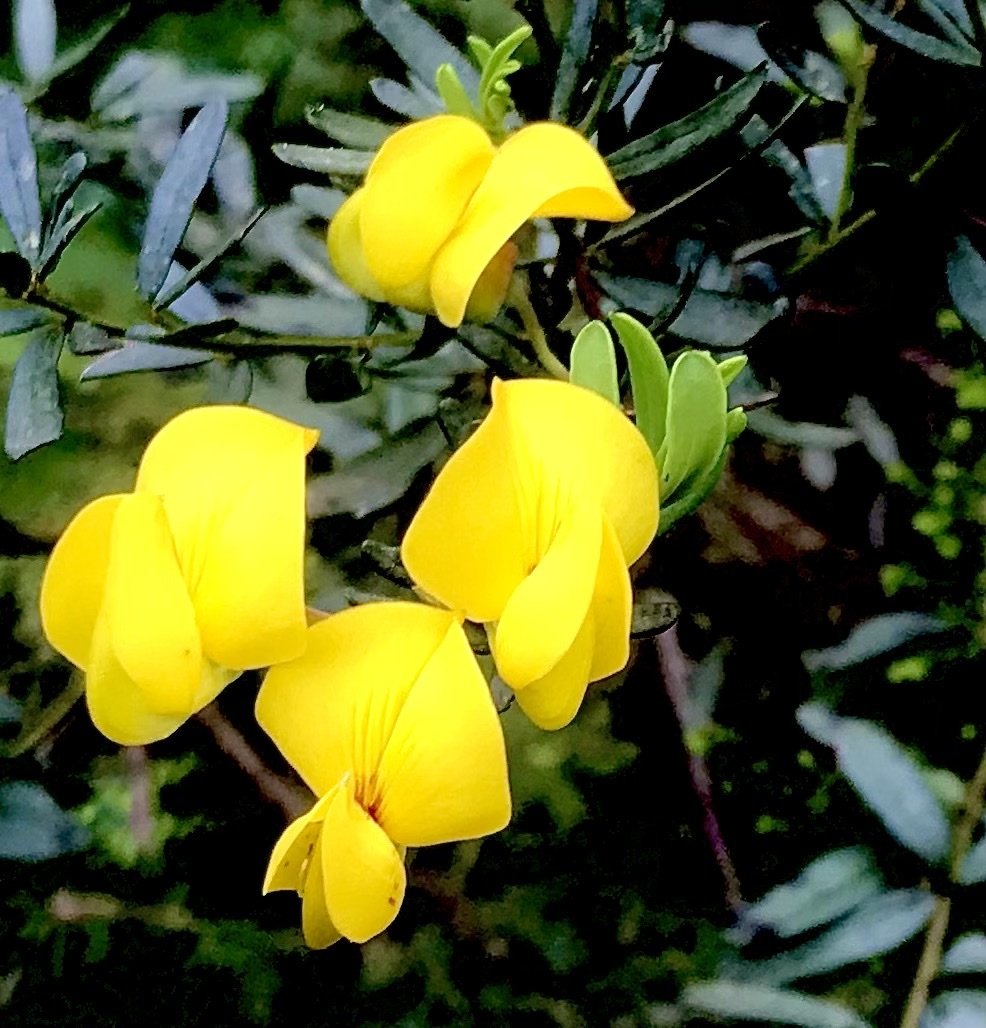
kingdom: Plantae
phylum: Tracheophyta
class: Magnoliopsida
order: Fabales
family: Fabaceae
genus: Cyclopia
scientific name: Cyclopia subternata
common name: Honeybush tea
